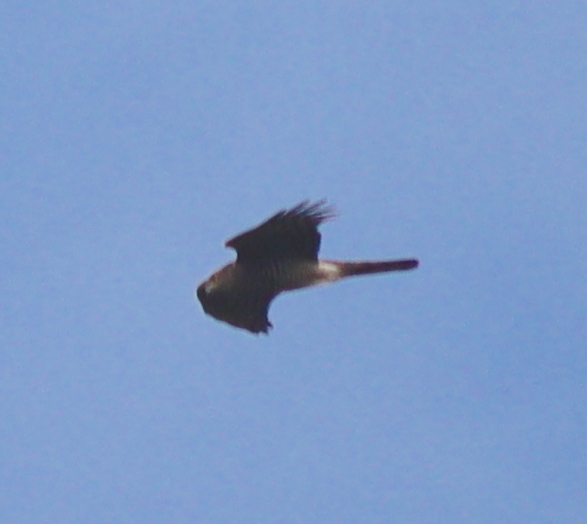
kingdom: Animalia
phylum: Chordata
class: Aves
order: Accipitriformes
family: Accipitridae
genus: Accipiter
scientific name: Accipiter nisus
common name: Eurasian sparrowhawk
